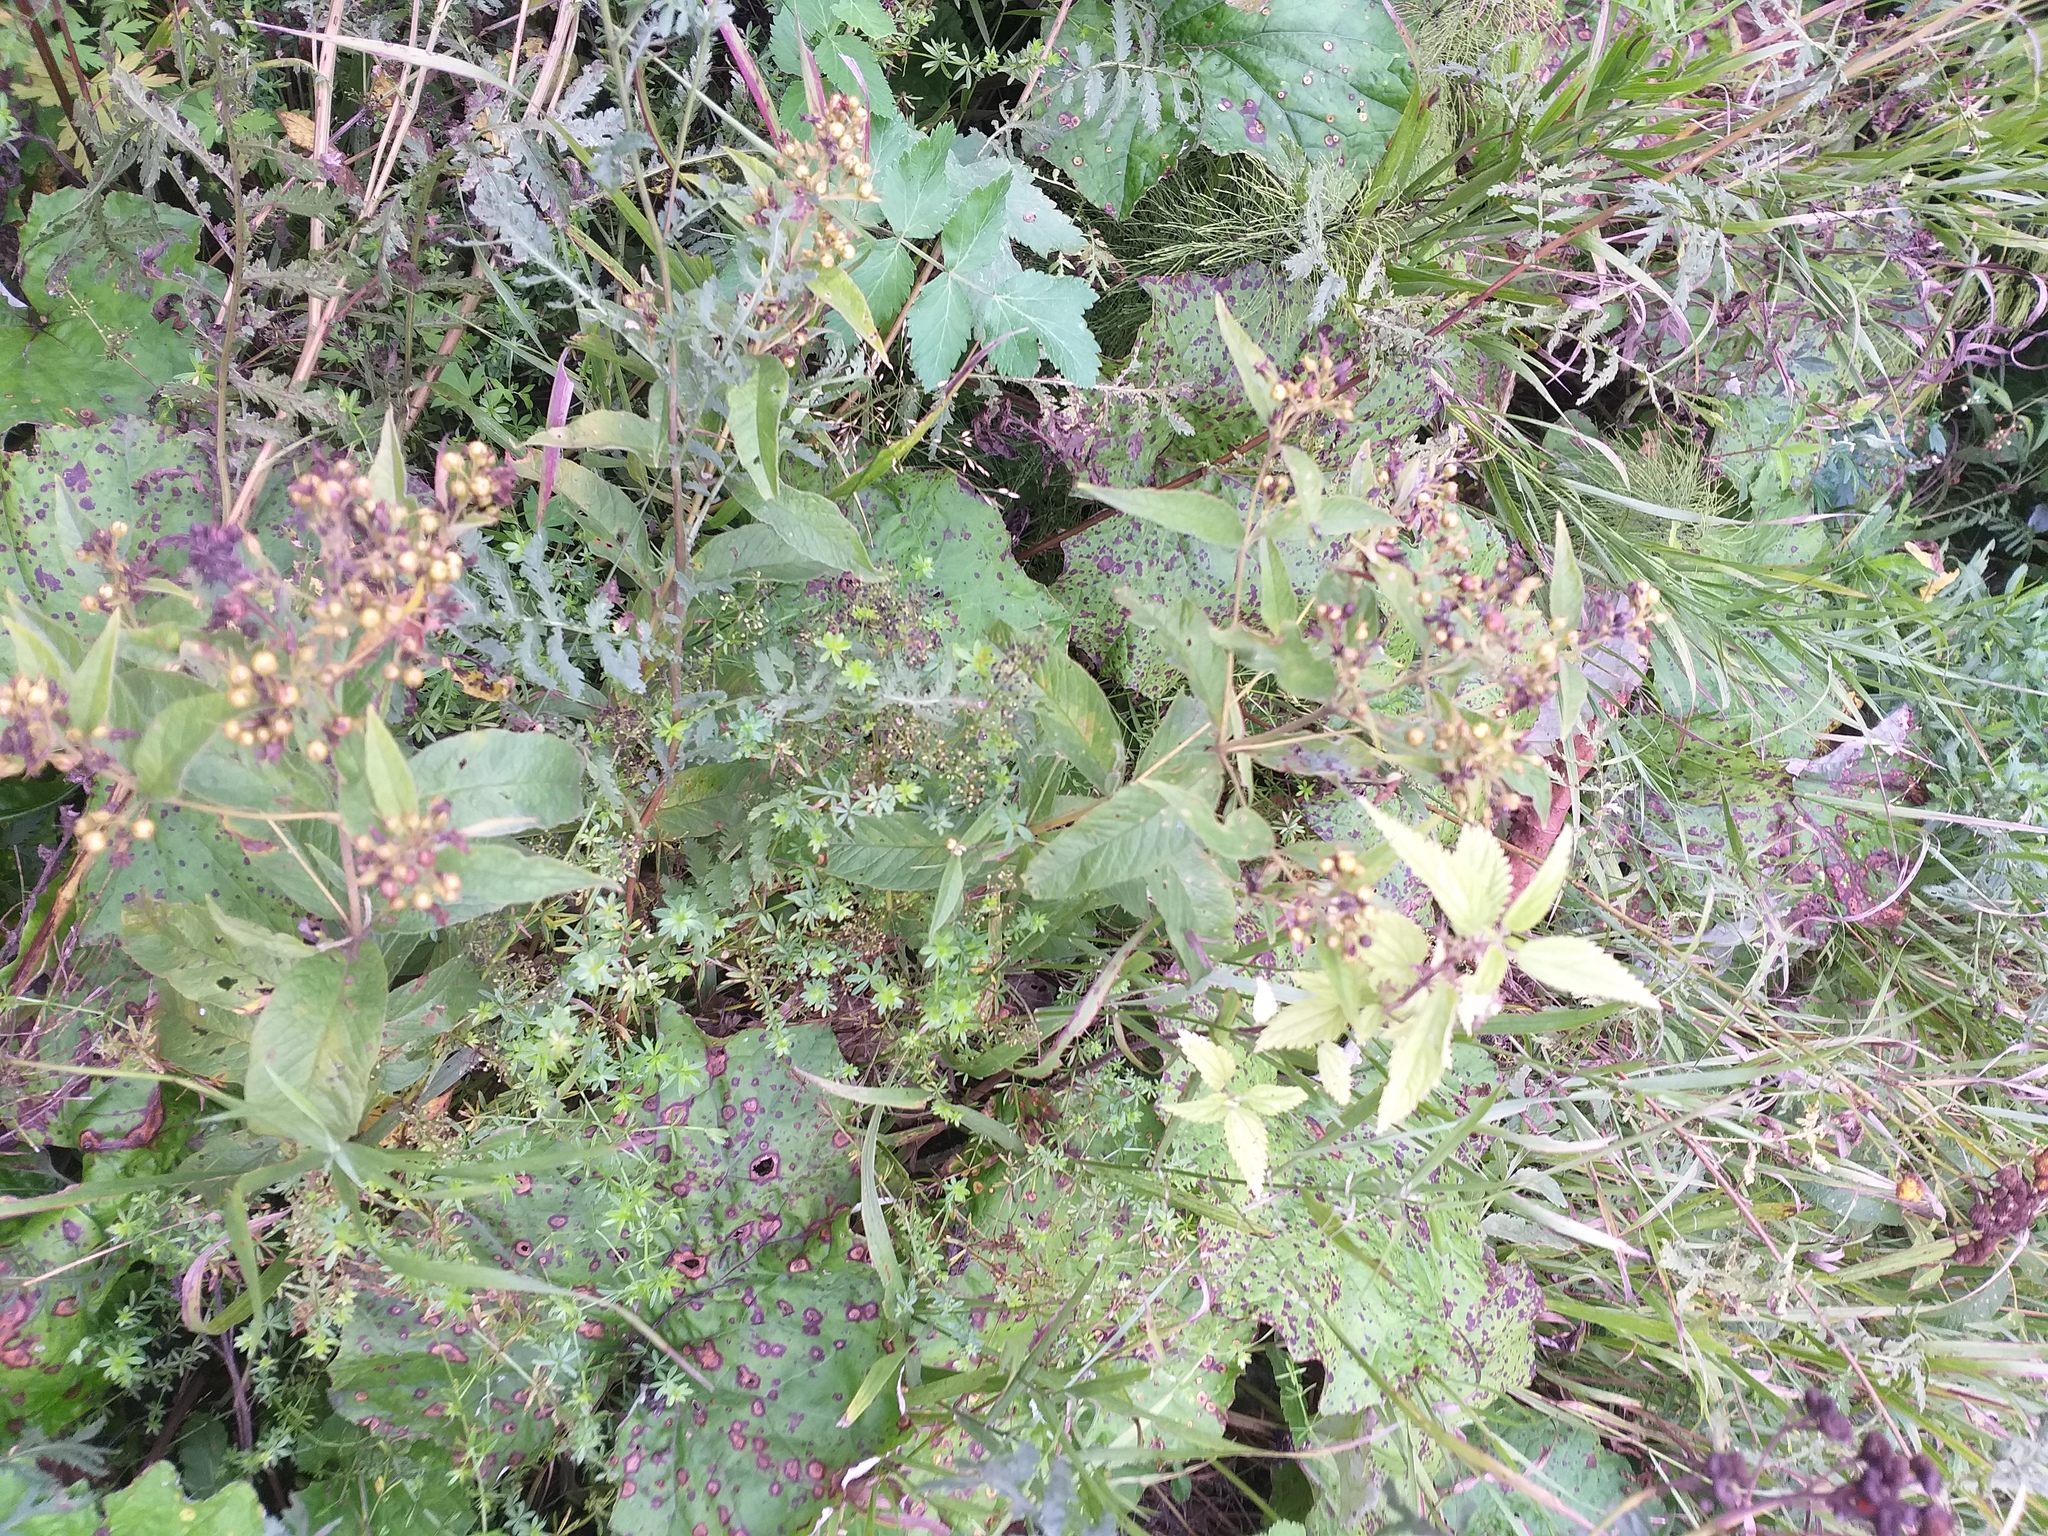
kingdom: Plantae
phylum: Tracheophyta
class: Magnoliopsida
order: Ericales
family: Primulaceae
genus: Lysimachia
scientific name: Lysimachia vulgaris
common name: Yellow loosestrife
